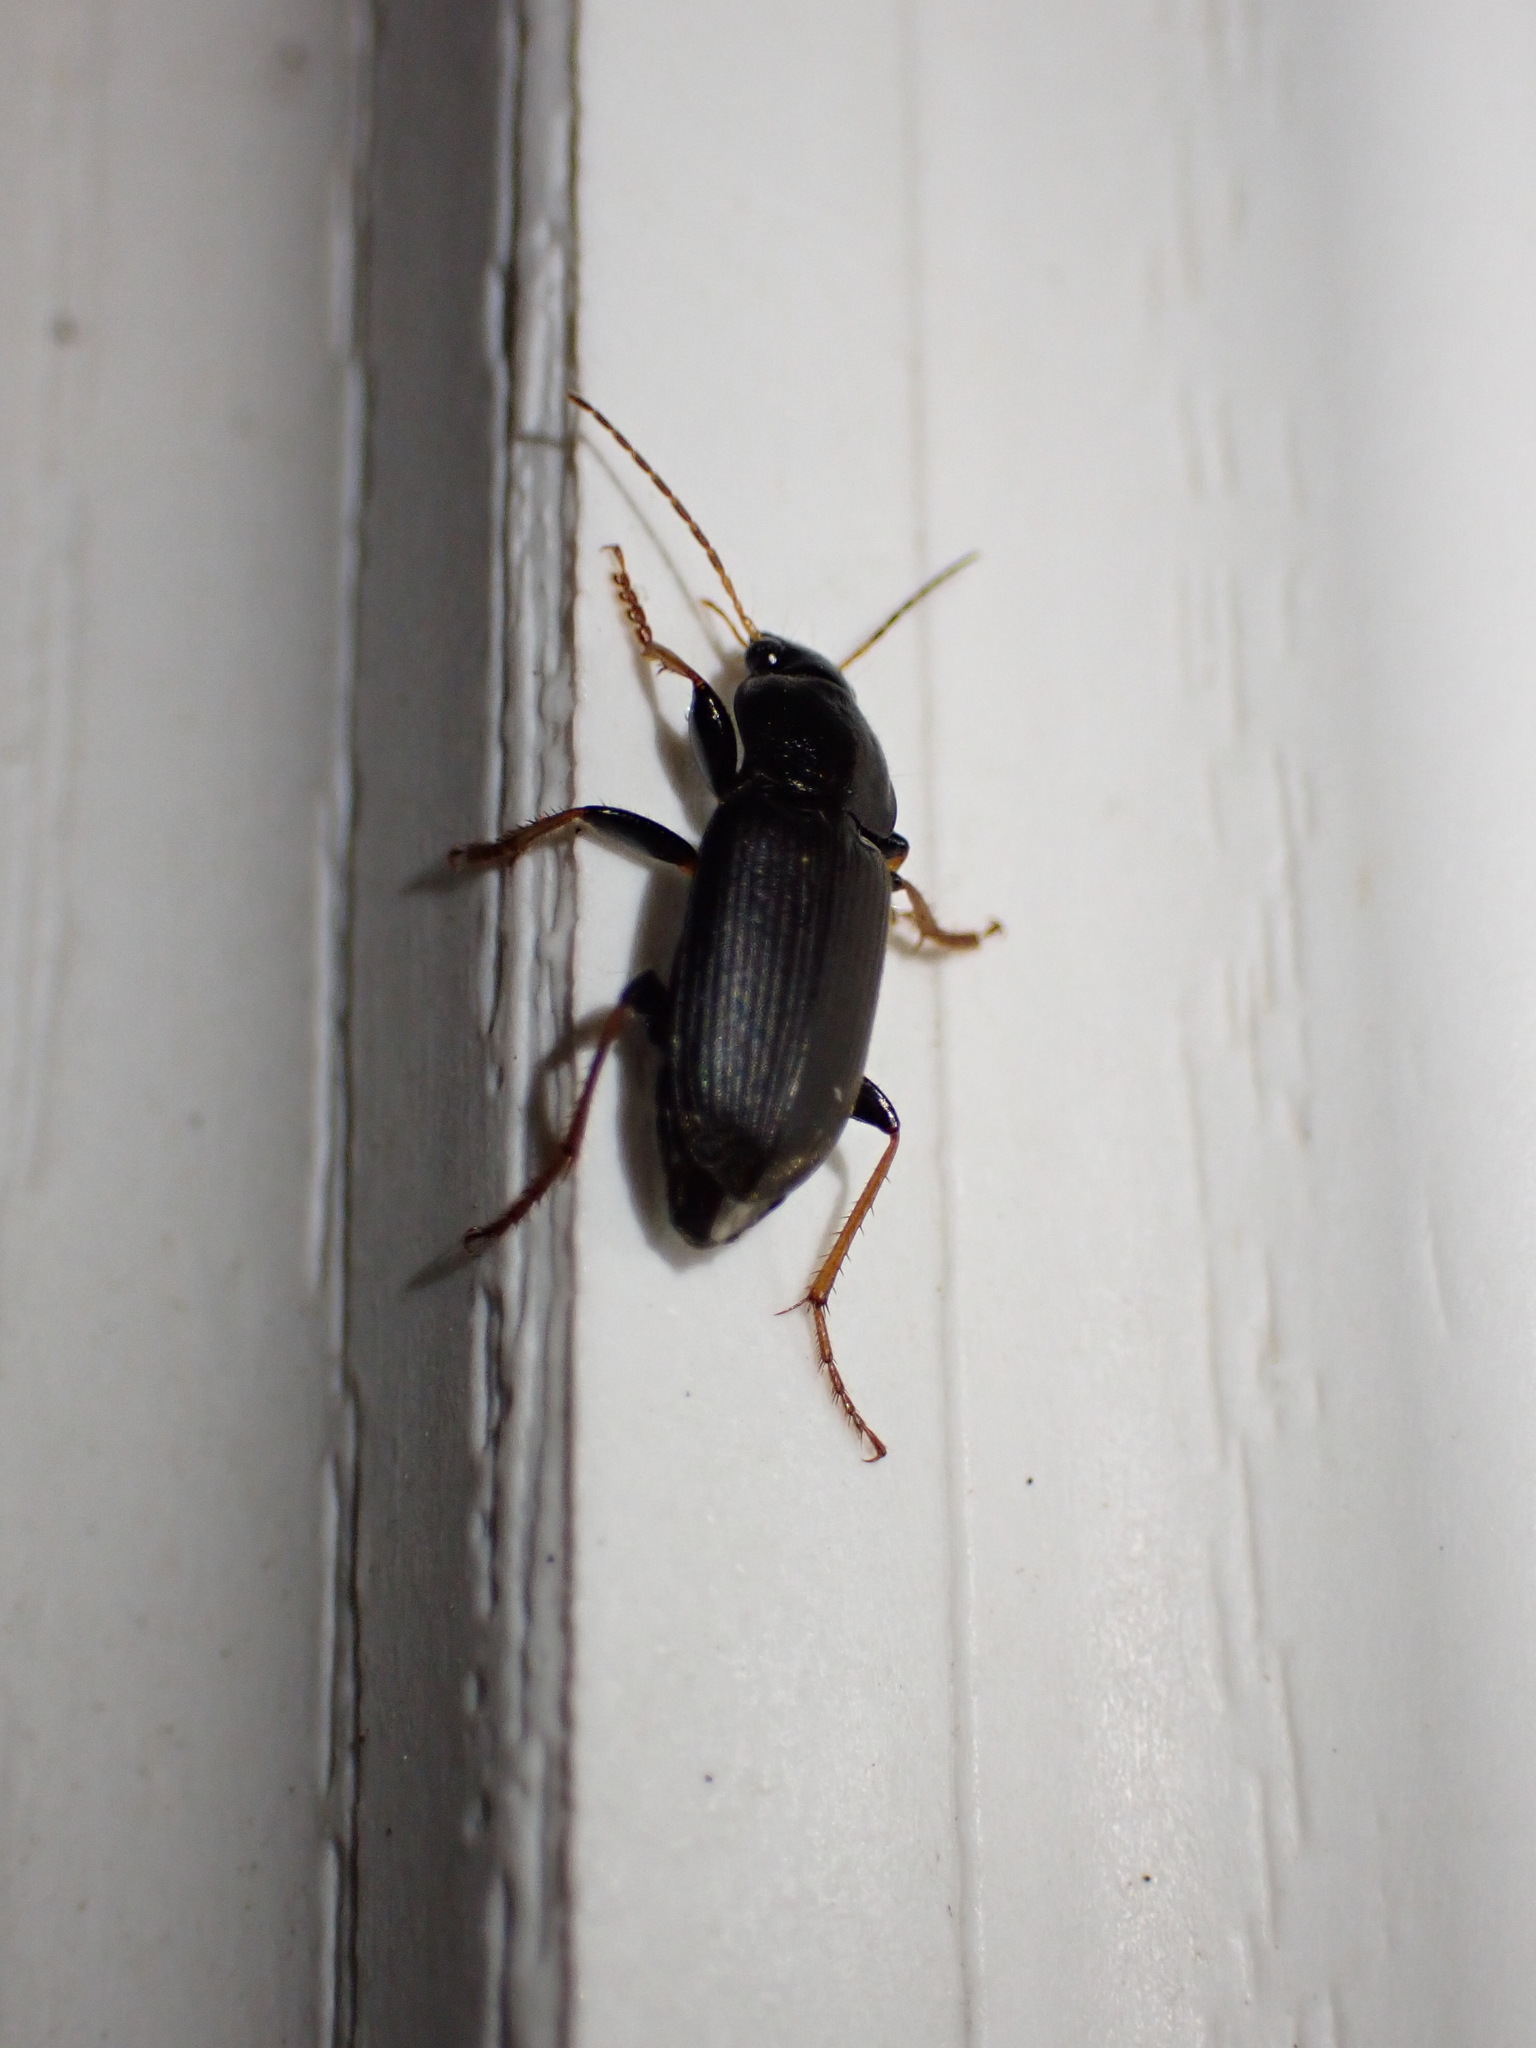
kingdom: Animalia
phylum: Arthropoda
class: Insecta
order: Coleoptera
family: Carabidae
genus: Amphasia
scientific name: Amphasia sericea
